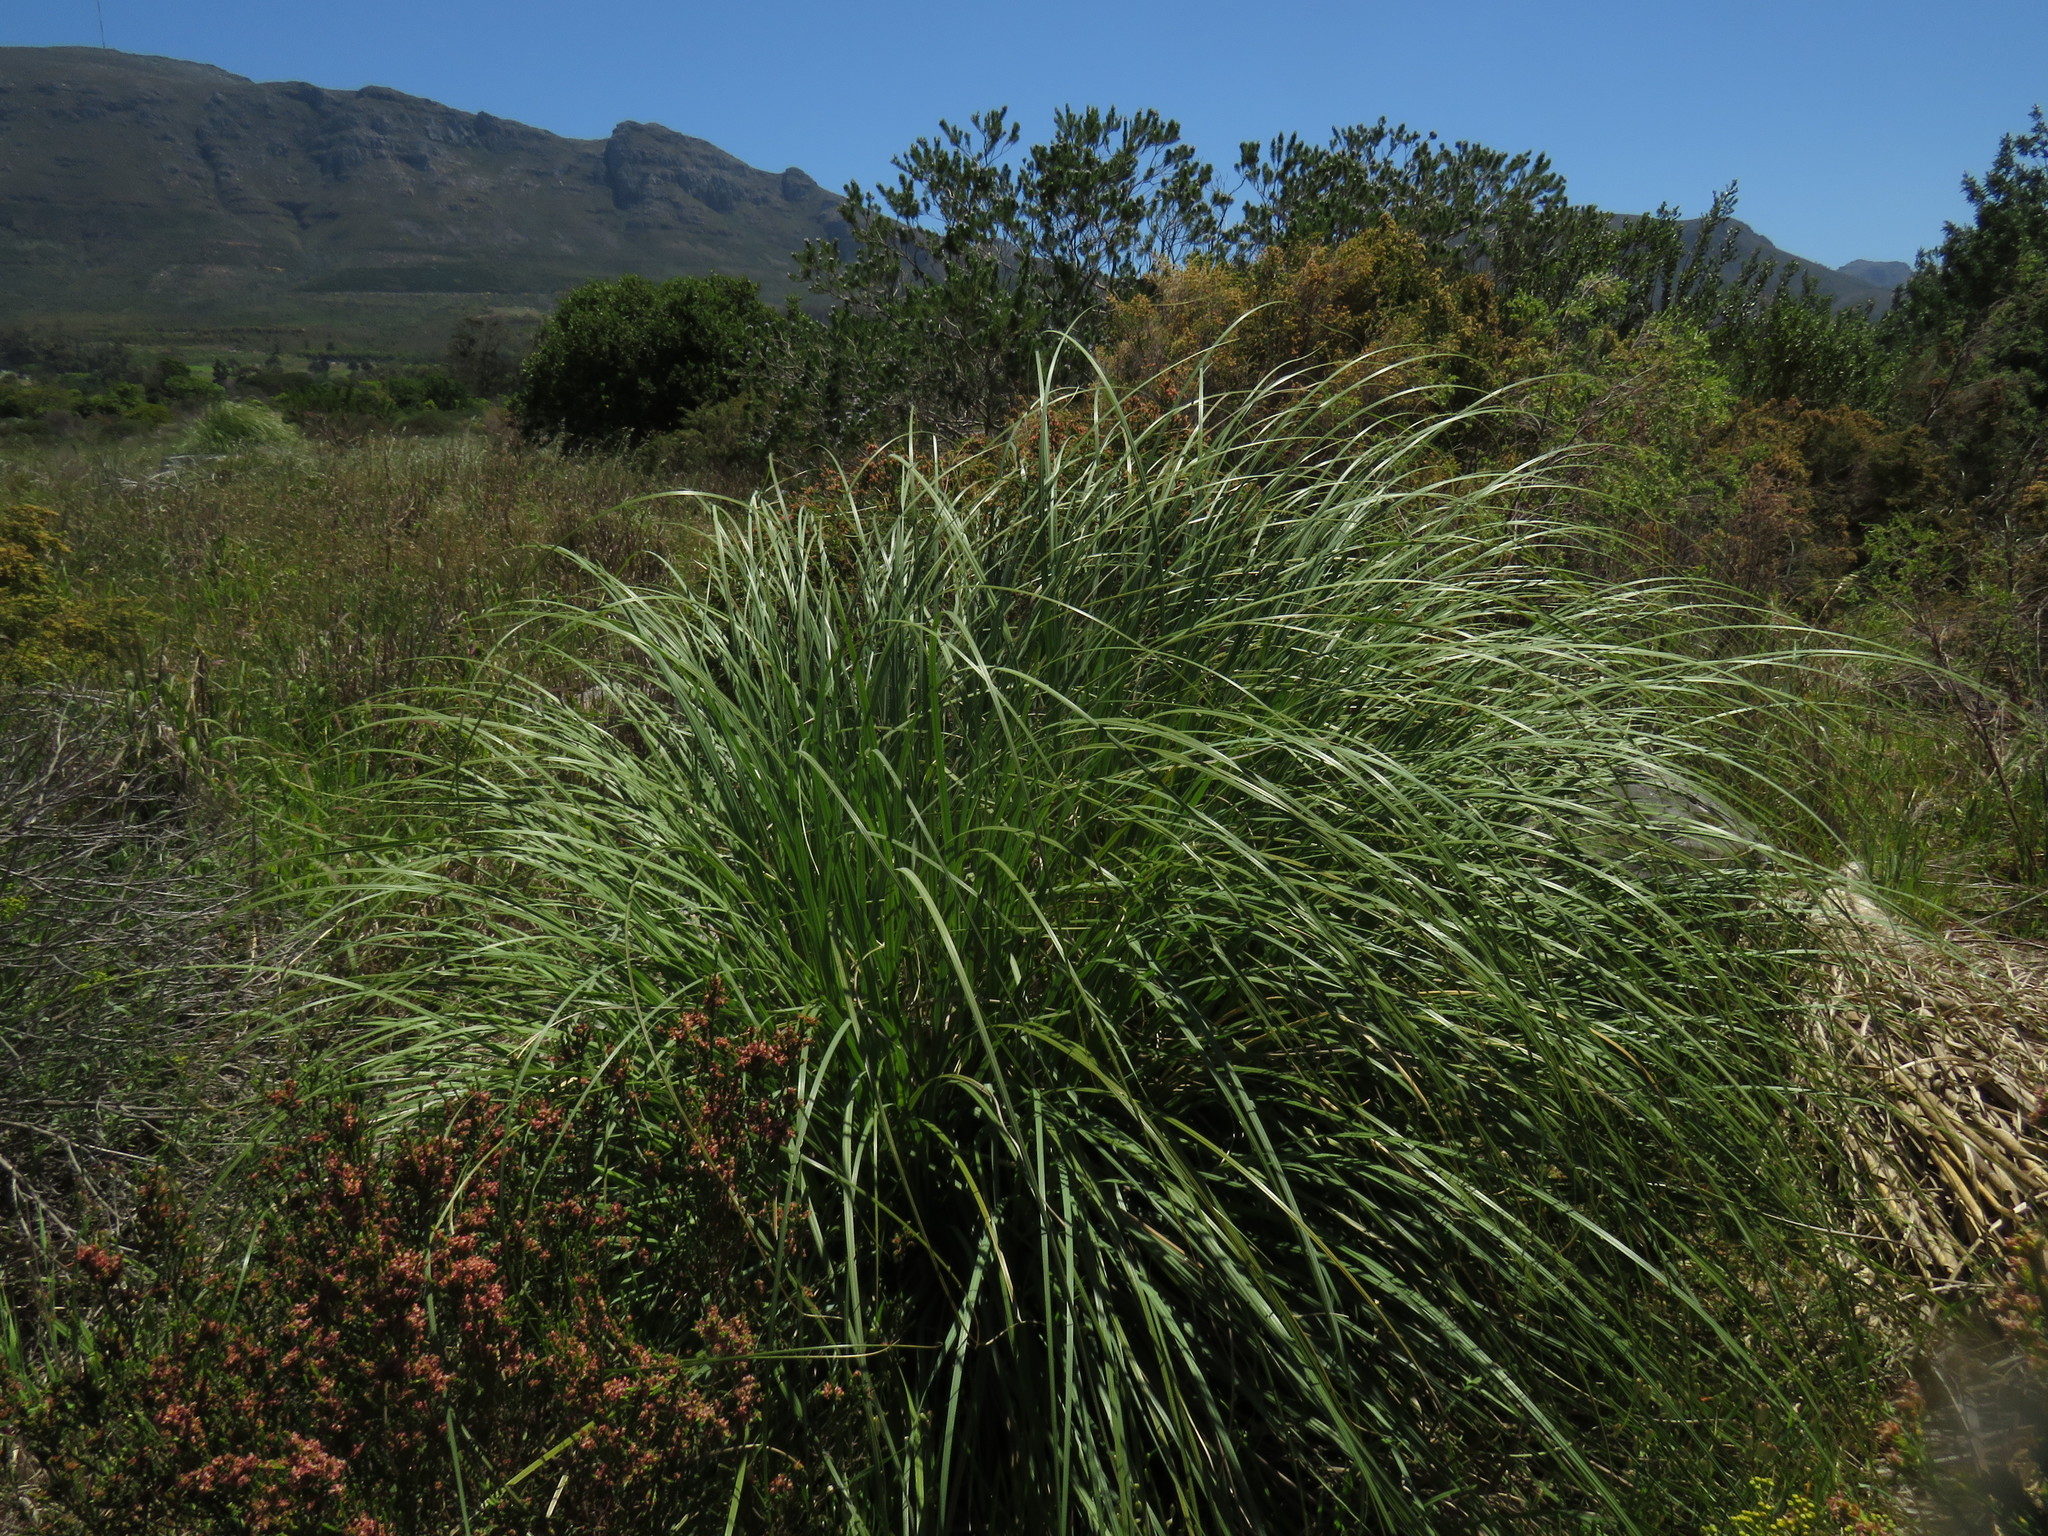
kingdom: Plantae
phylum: Tracheophyta
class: Liliopsida
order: Poales
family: Poaceae
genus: Cortaderia
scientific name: Cortaderia selloana
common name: Uruguayan pampas grass
